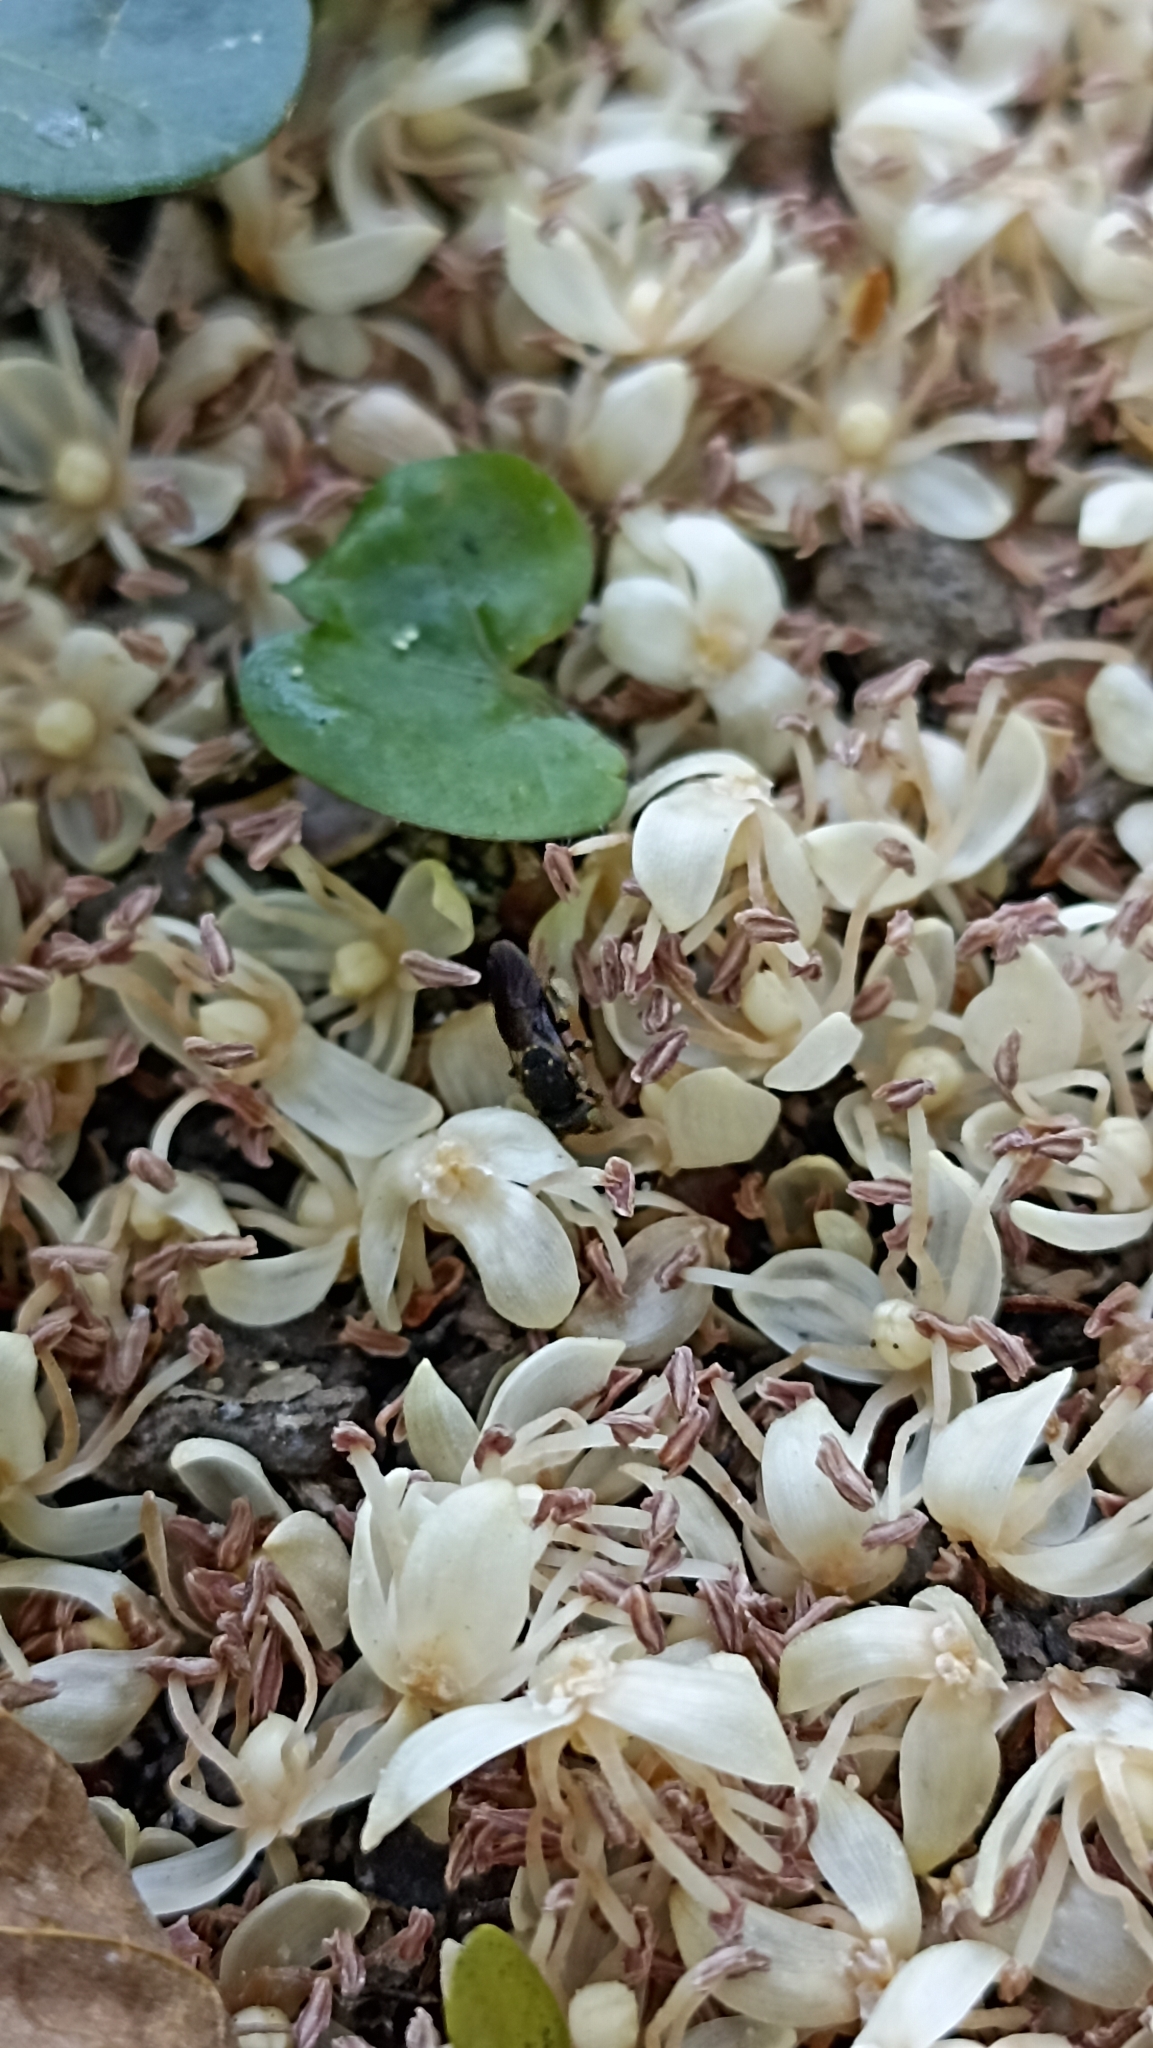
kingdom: Animalia
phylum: Arthropoda
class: Insecta
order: Hymenoptera
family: Apidae
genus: Nannotrigona
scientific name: Nannotrigona testaceicornis
